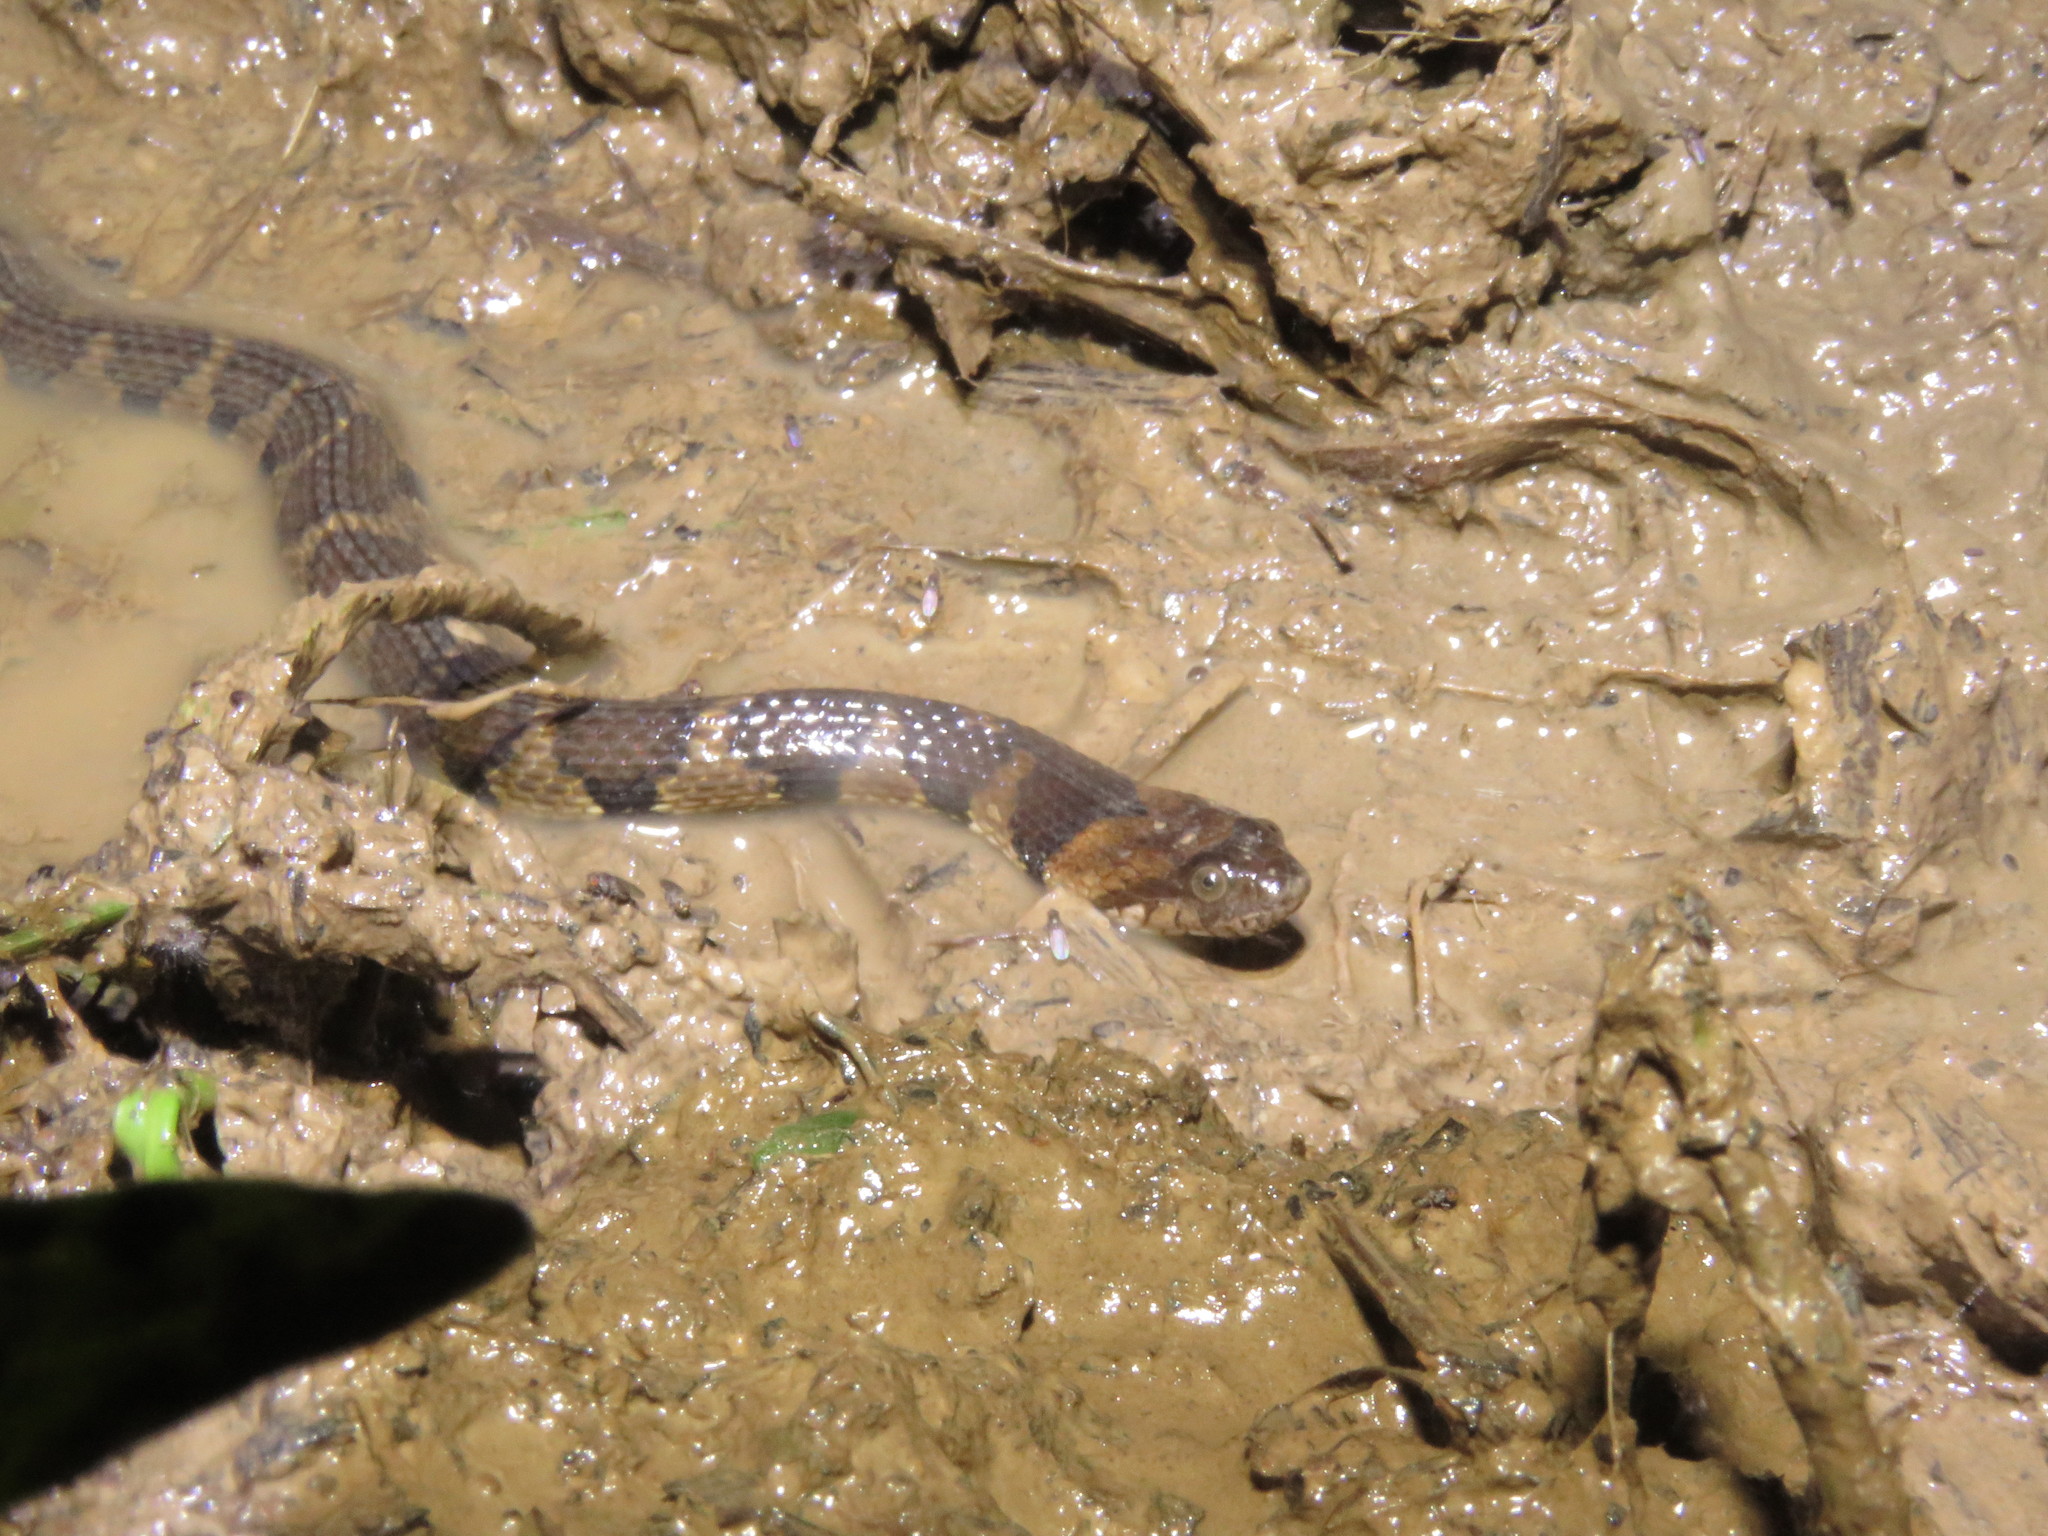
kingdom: Animalia
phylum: Chordata
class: Squamata
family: Colubridae
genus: Helicops
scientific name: Helicops angulatus
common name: Mountain keelback
